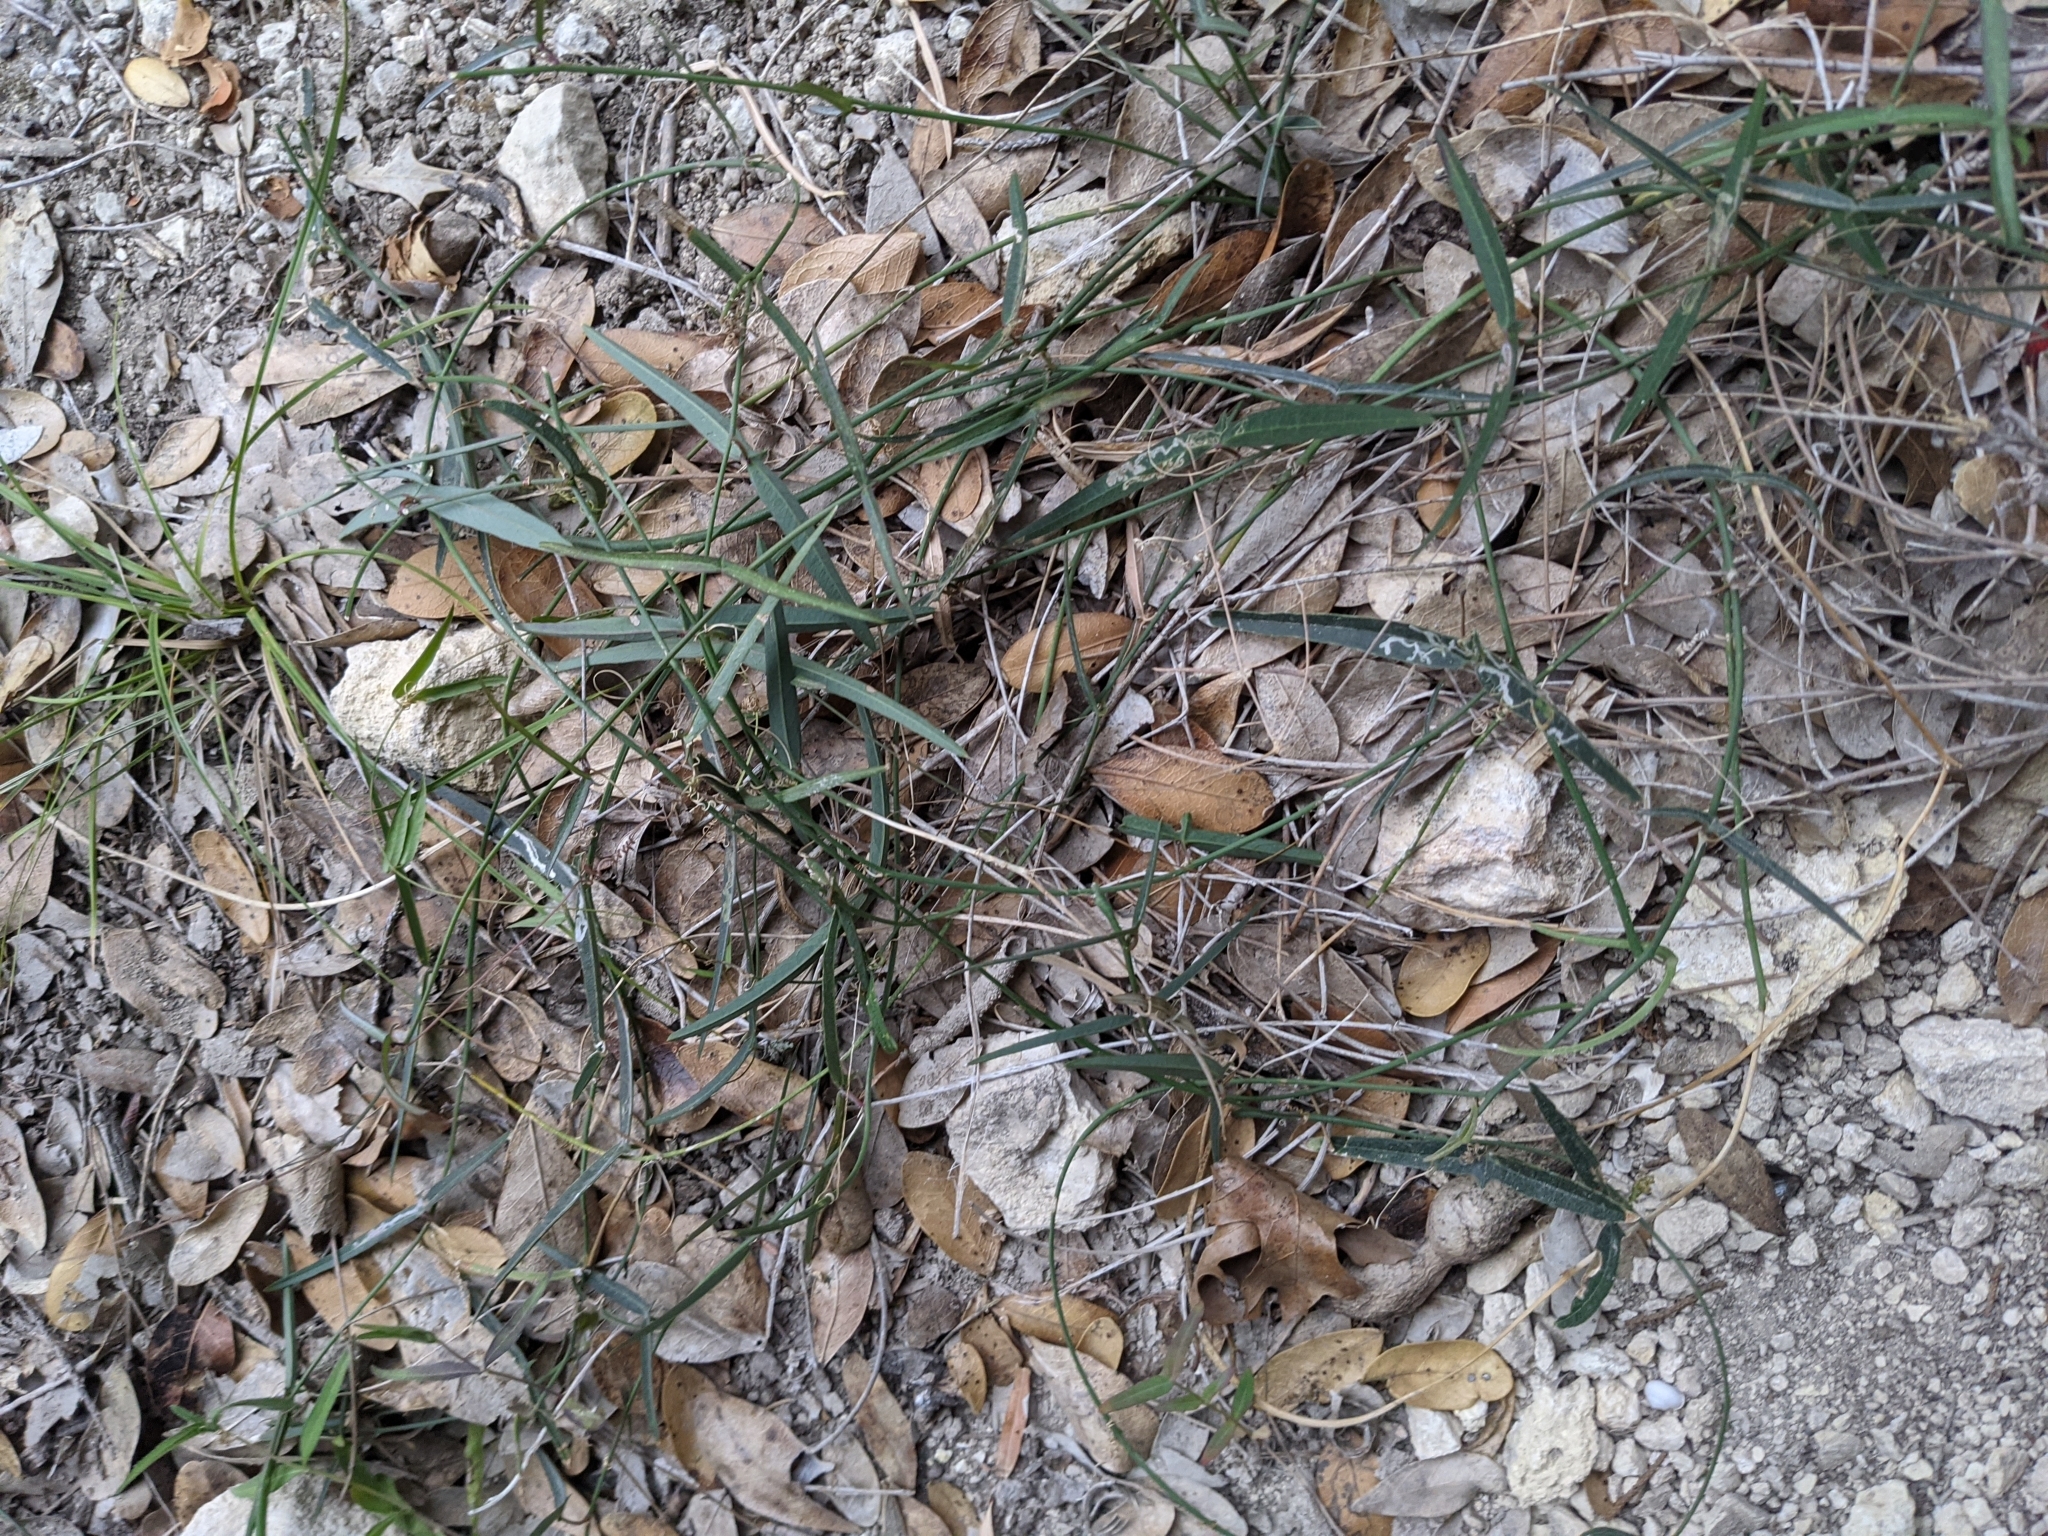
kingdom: Plantae
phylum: Tracheophyta
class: Magnoliopsida
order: Malpighiales
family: Passifloraceae
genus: Passiflora
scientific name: Passiflora tenuiloba
